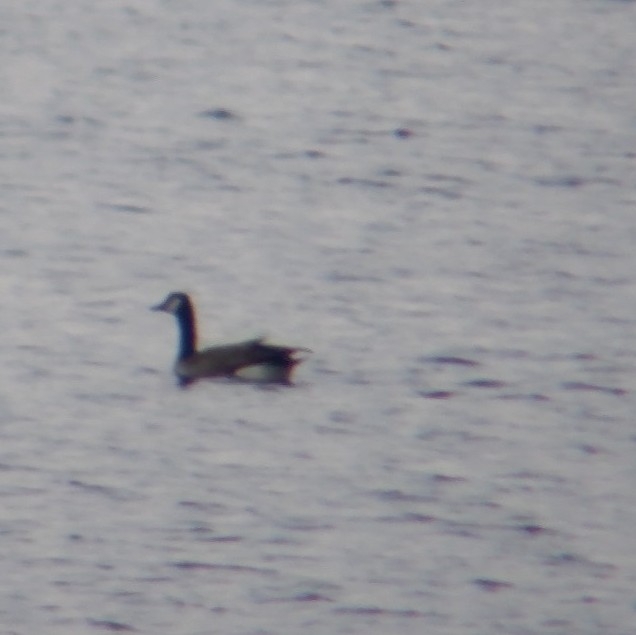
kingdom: Animalia
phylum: Chordata
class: Aves
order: Anseriformes
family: Anatidae
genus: Branta
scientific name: Branta canadensis
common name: Canada goose
